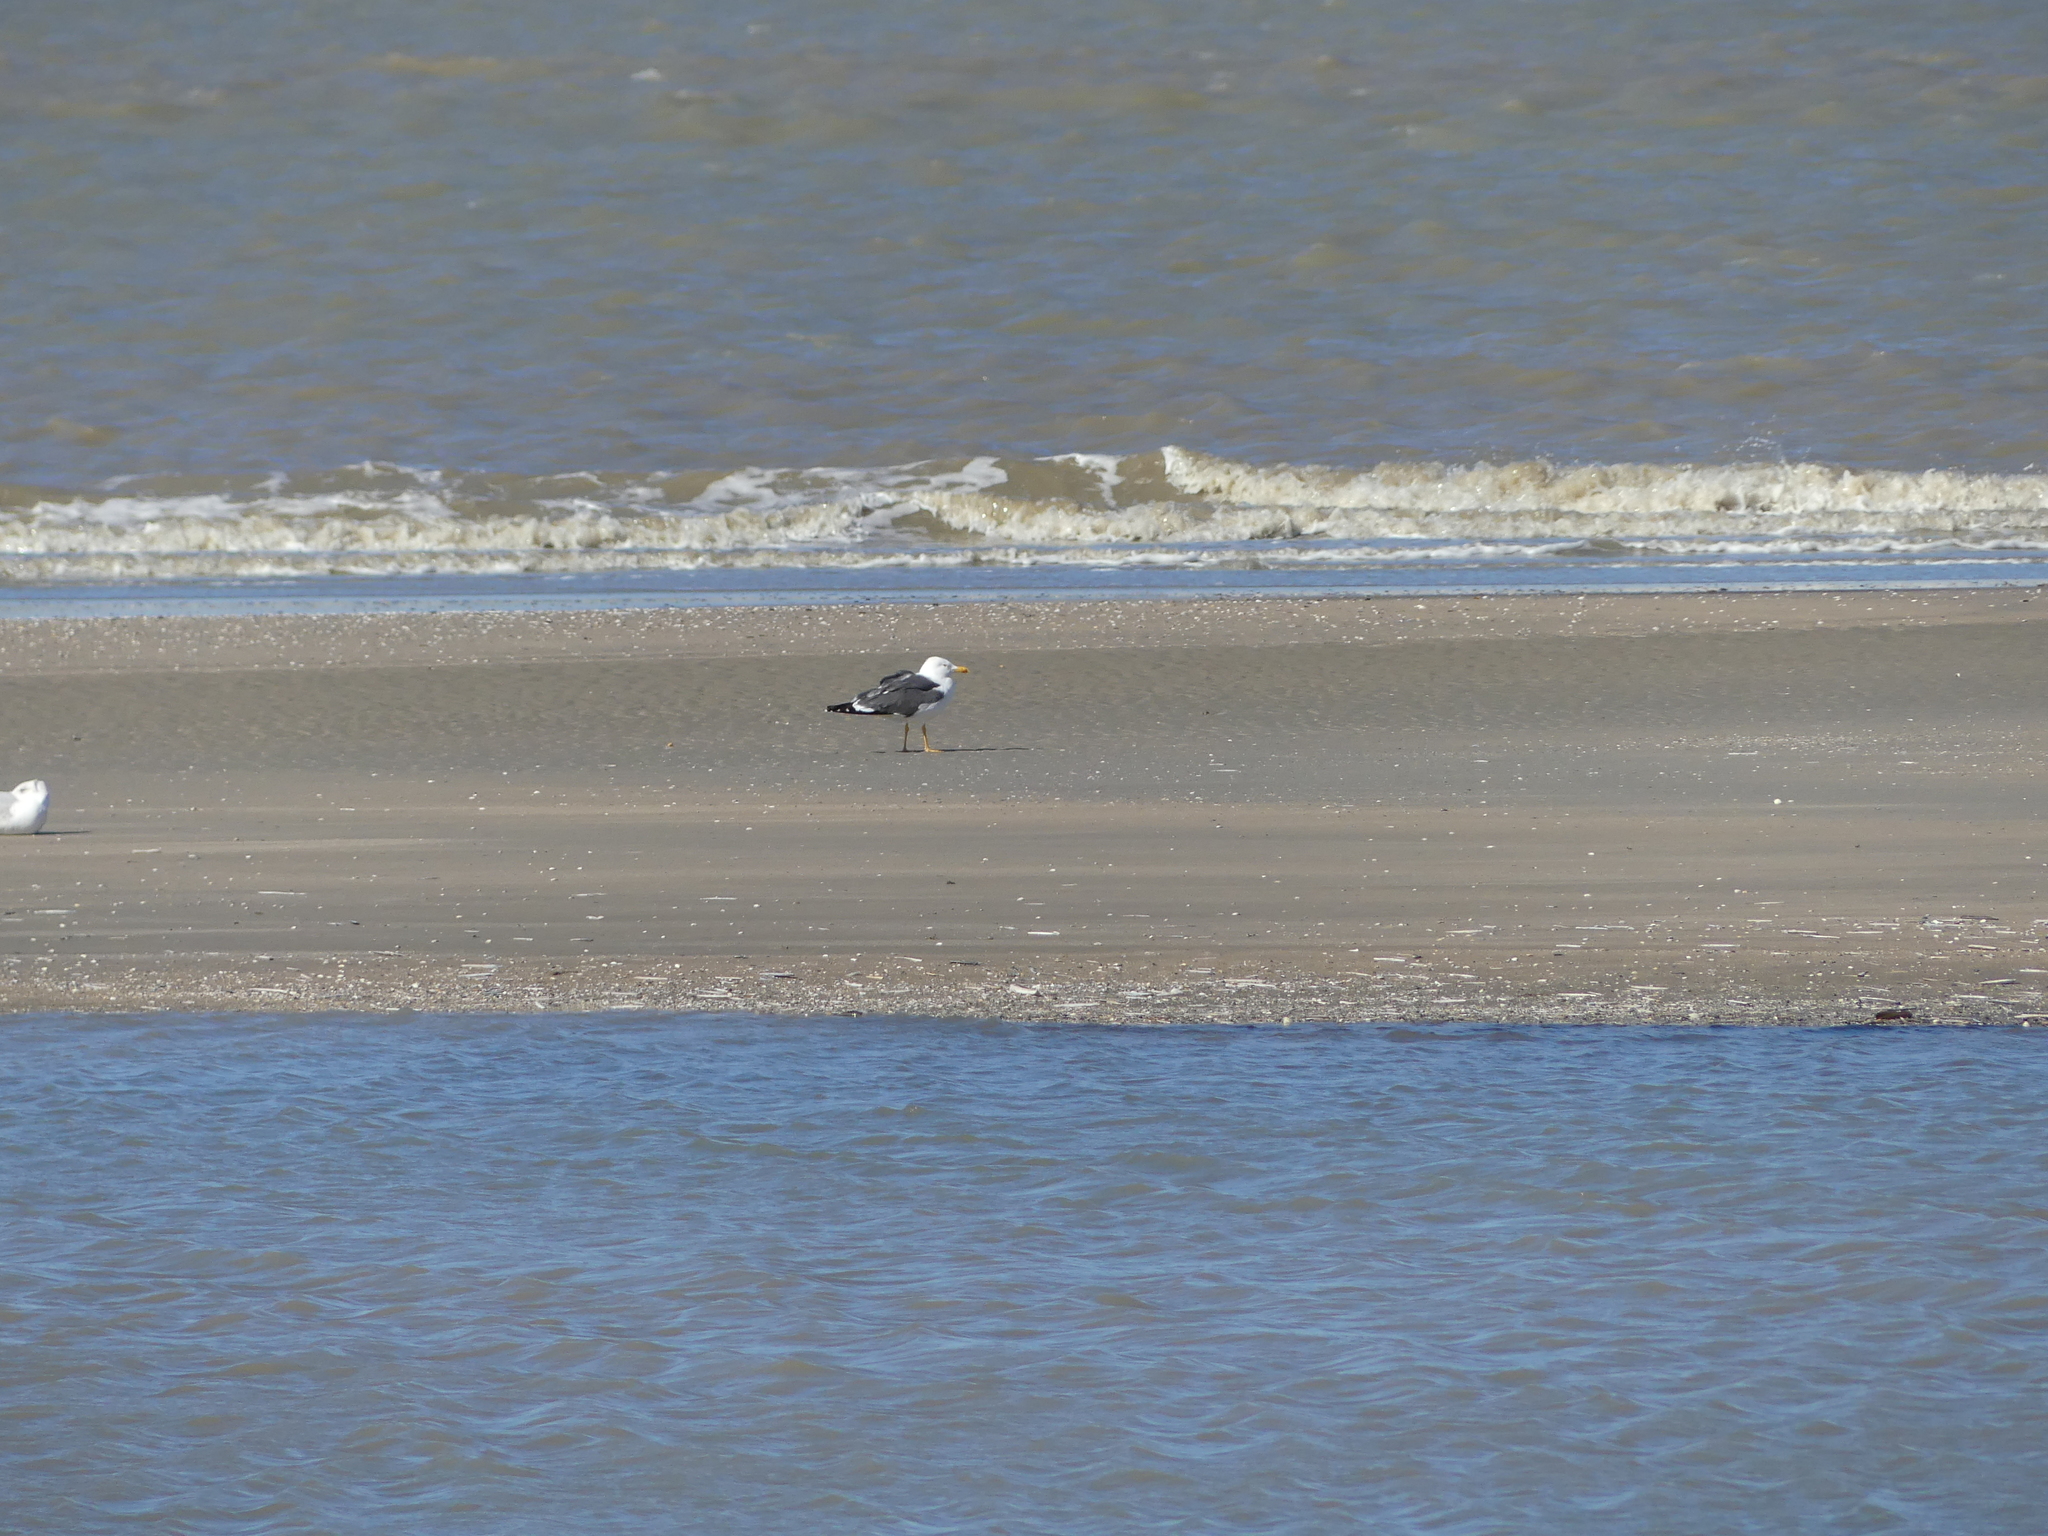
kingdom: Animalia
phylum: Chordata
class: Aves
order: Charadriiformes
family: Laridae
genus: Larus
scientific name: Larus fuscus
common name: Lesser black-backed gull
